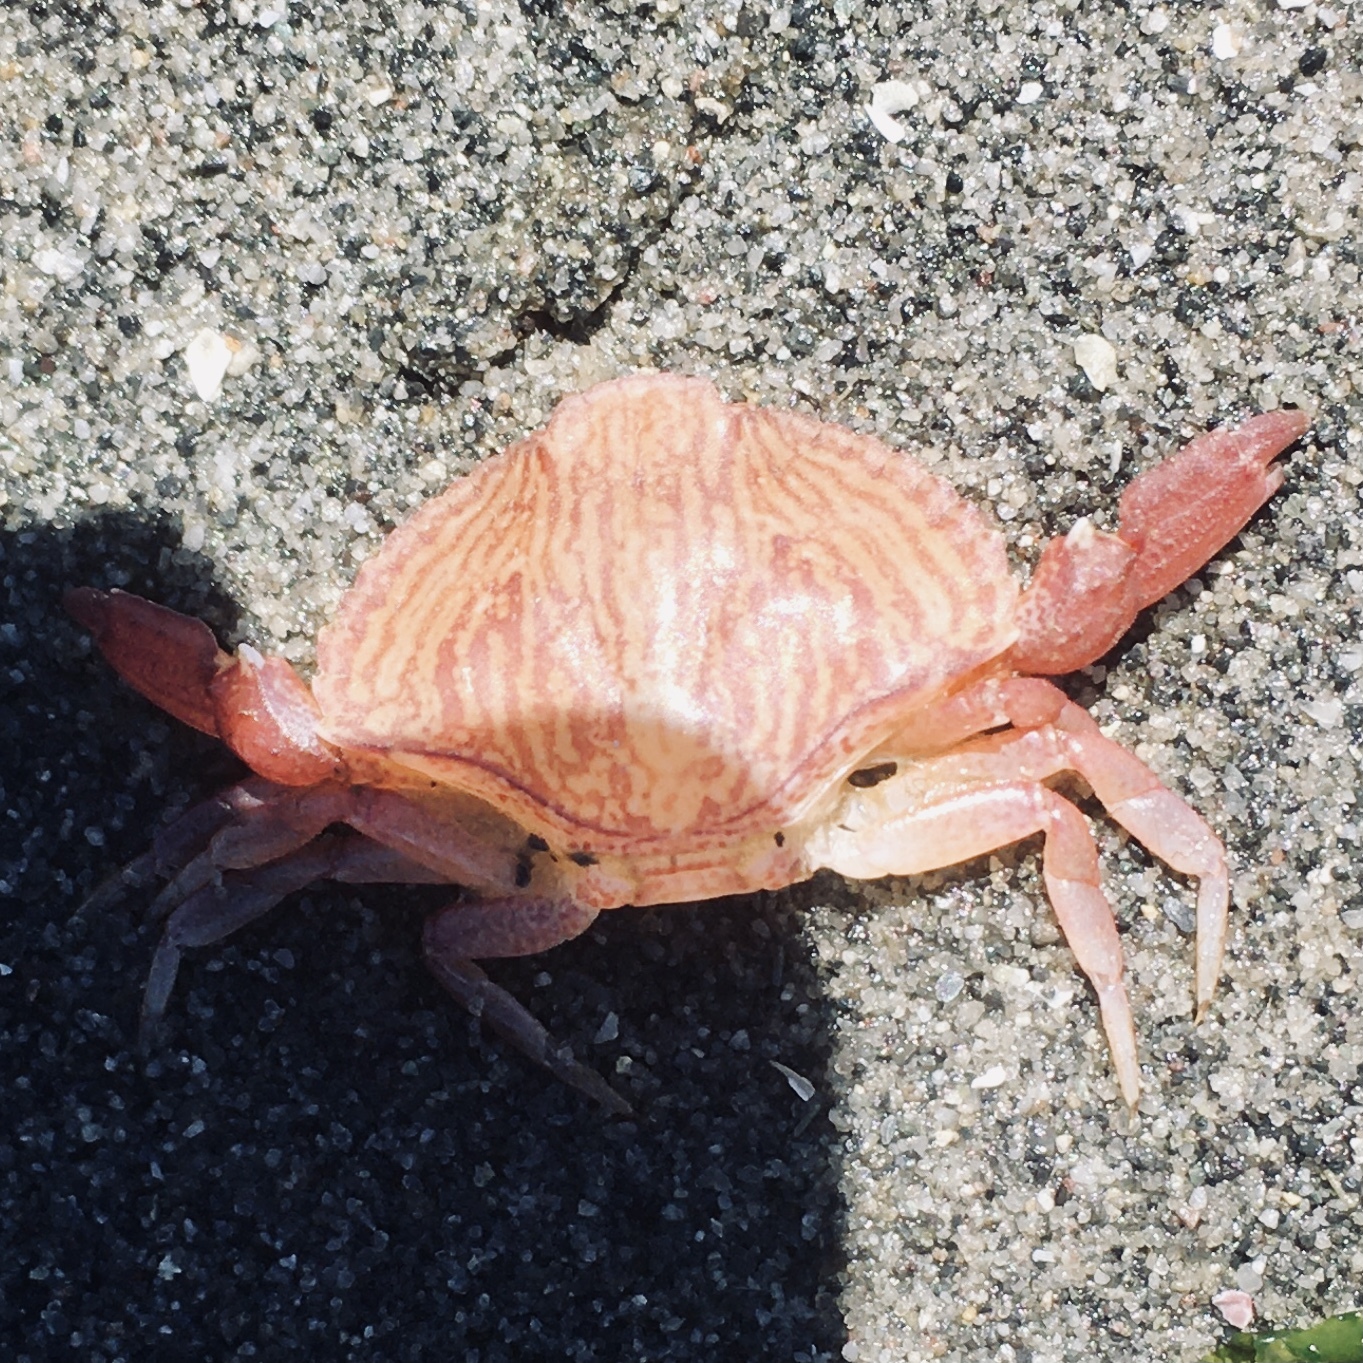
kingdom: Animalia
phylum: Arthropoda
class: Malacostraca
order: Decapoda
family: Cancridae
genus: Cancer
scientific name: Cancer productus
